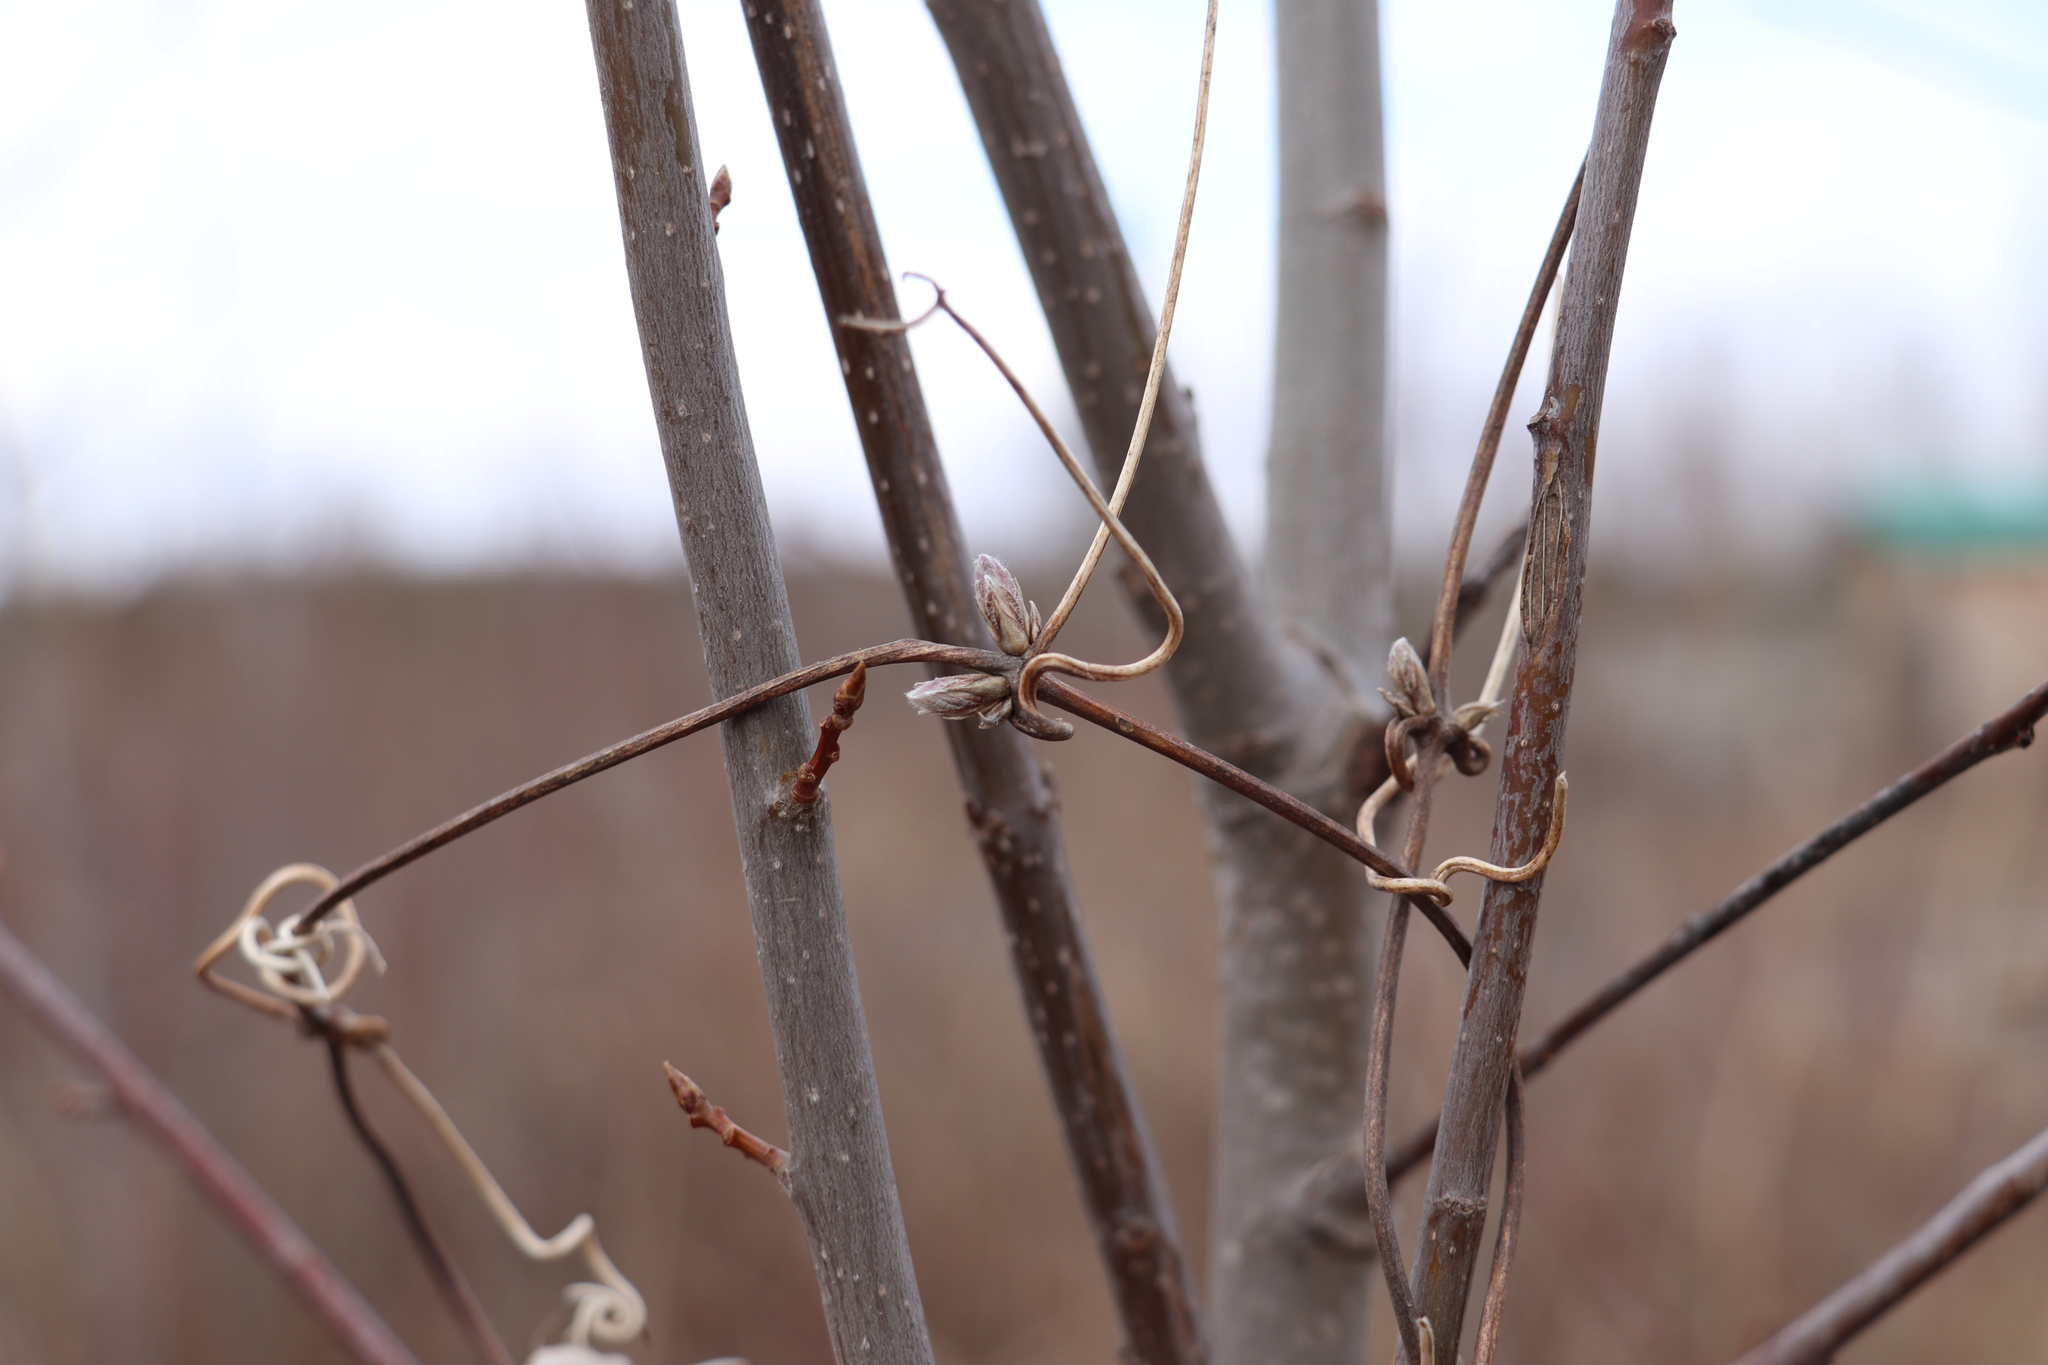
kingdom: Plantae
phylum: Tracheophyta
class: Magnoliopsida
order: Ranunculales
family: Ranunculaceae
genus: Clematis
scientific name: Clematis sibirica
